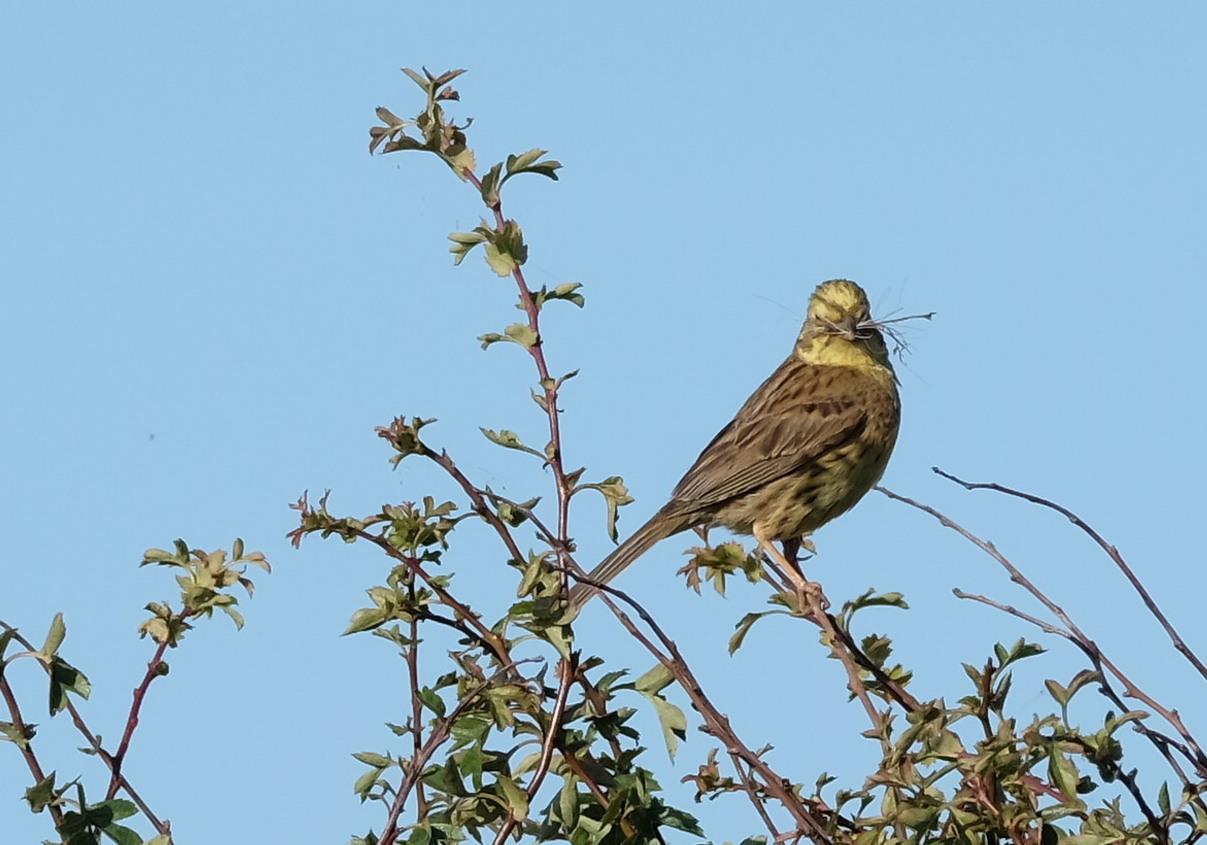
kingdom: Animalia
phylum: Chordata
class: Aves
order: Passeriformes
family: Emberizidae
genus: Emberiza
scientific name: Emberiza citrinella
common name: Yellowhammer
